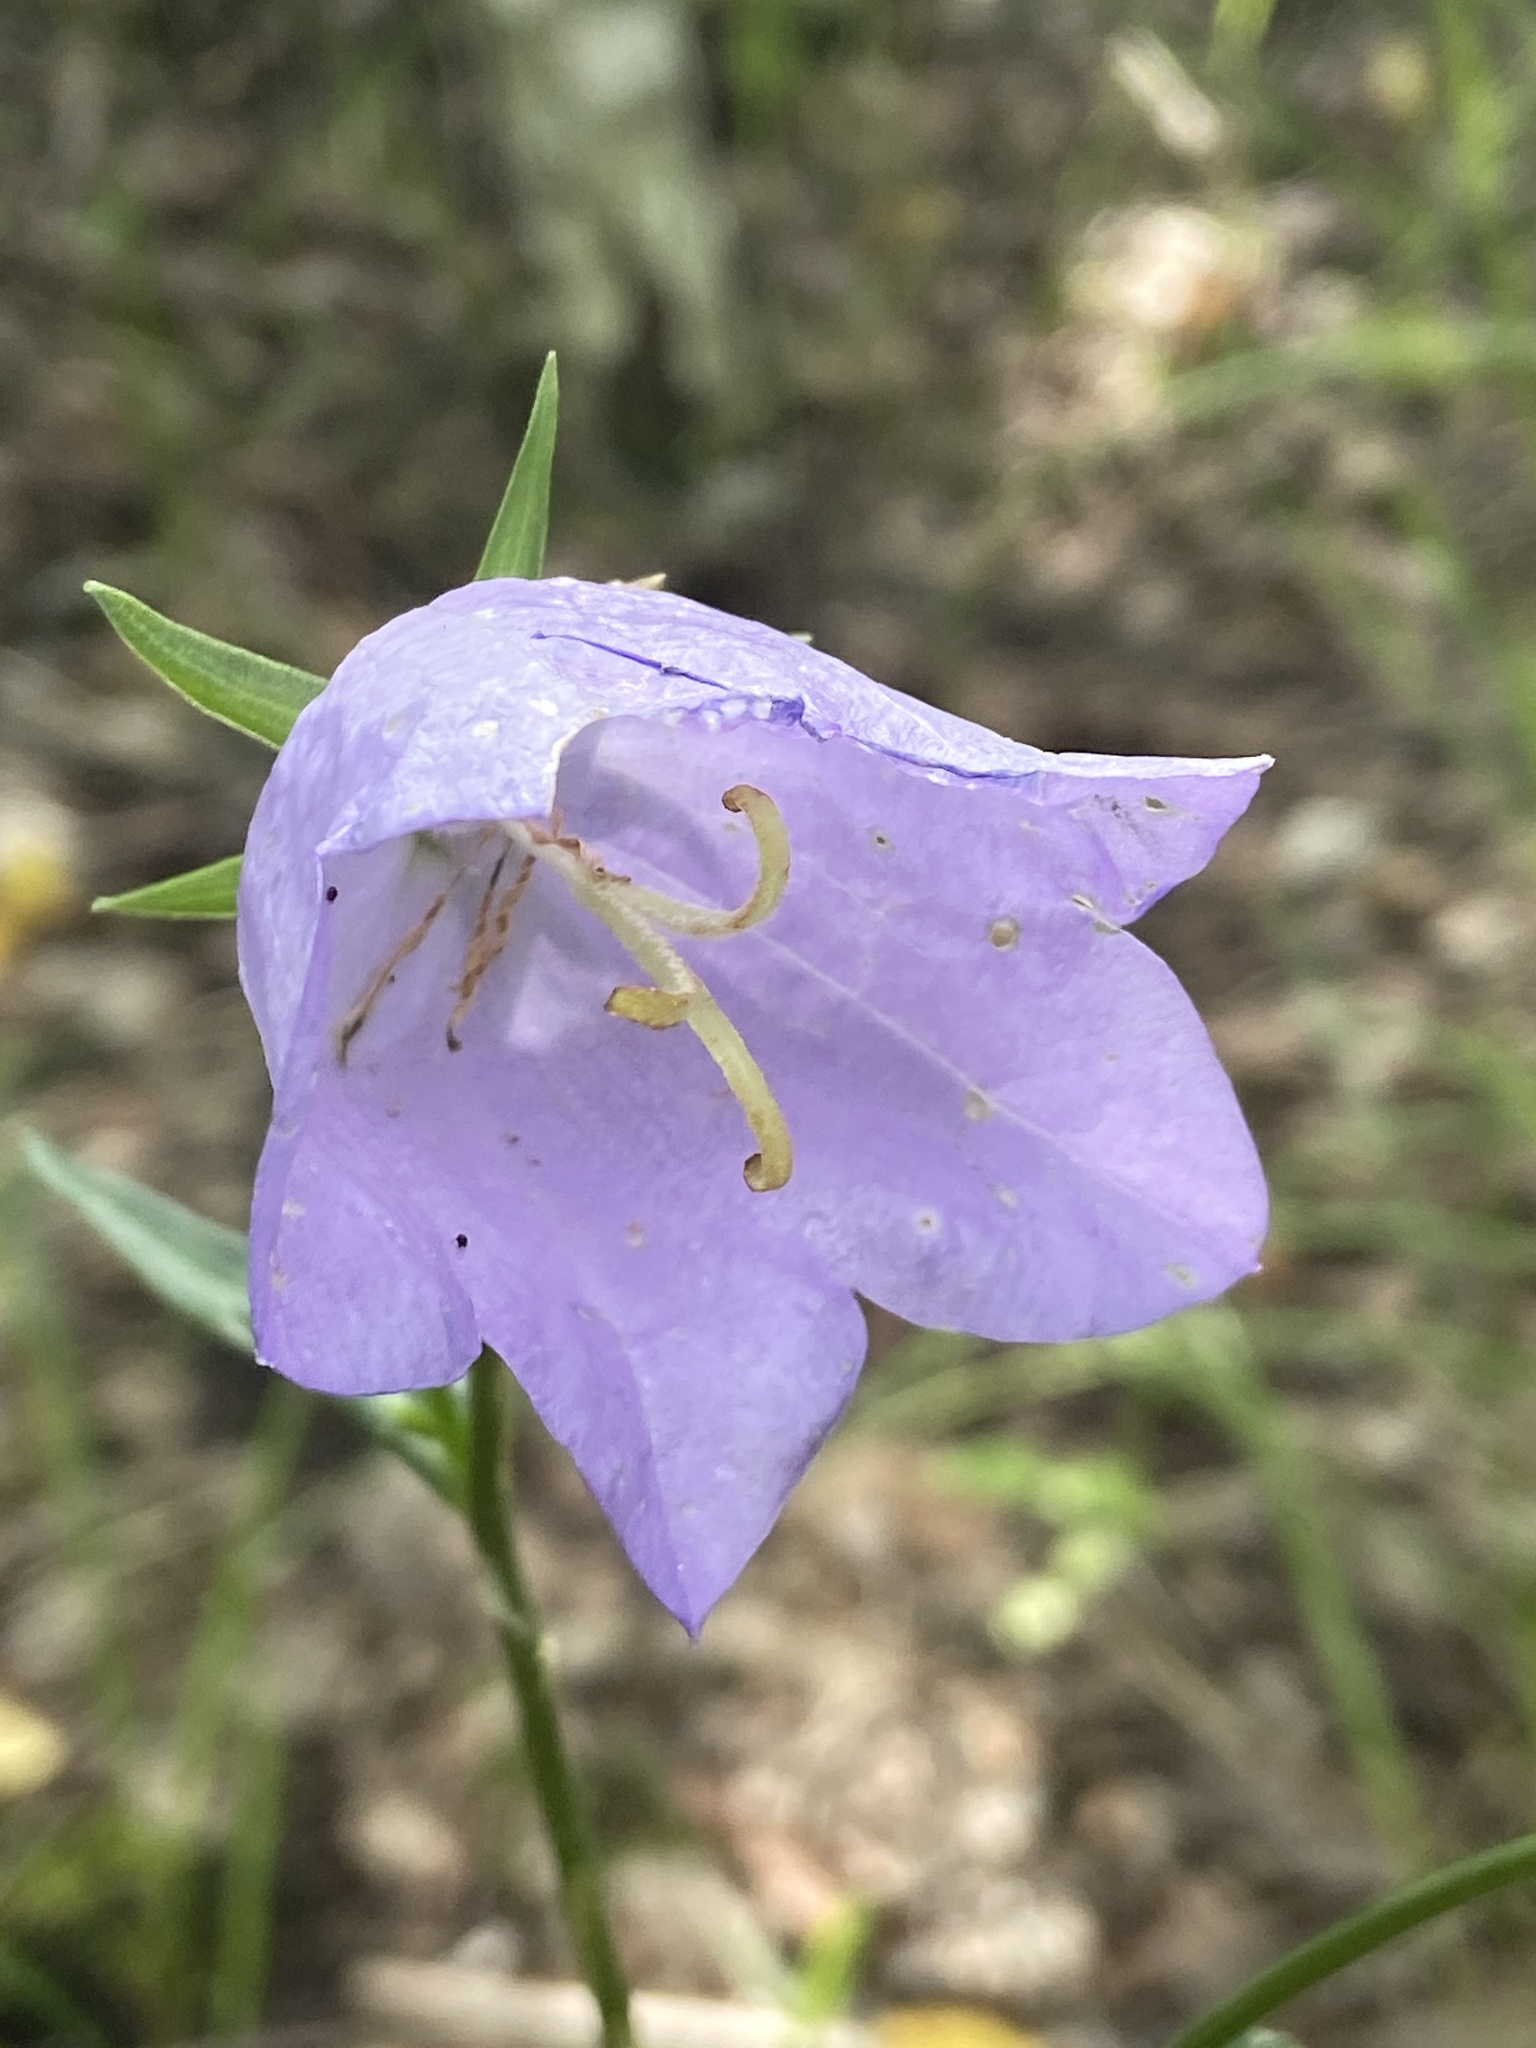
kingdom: Plantae
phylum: Tracheophyta
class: Magnoliopsida
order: Asterales
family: Campanulaceae
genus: Campanula
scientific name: Campanula persicifolia
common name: Peach-leaved bellflower
